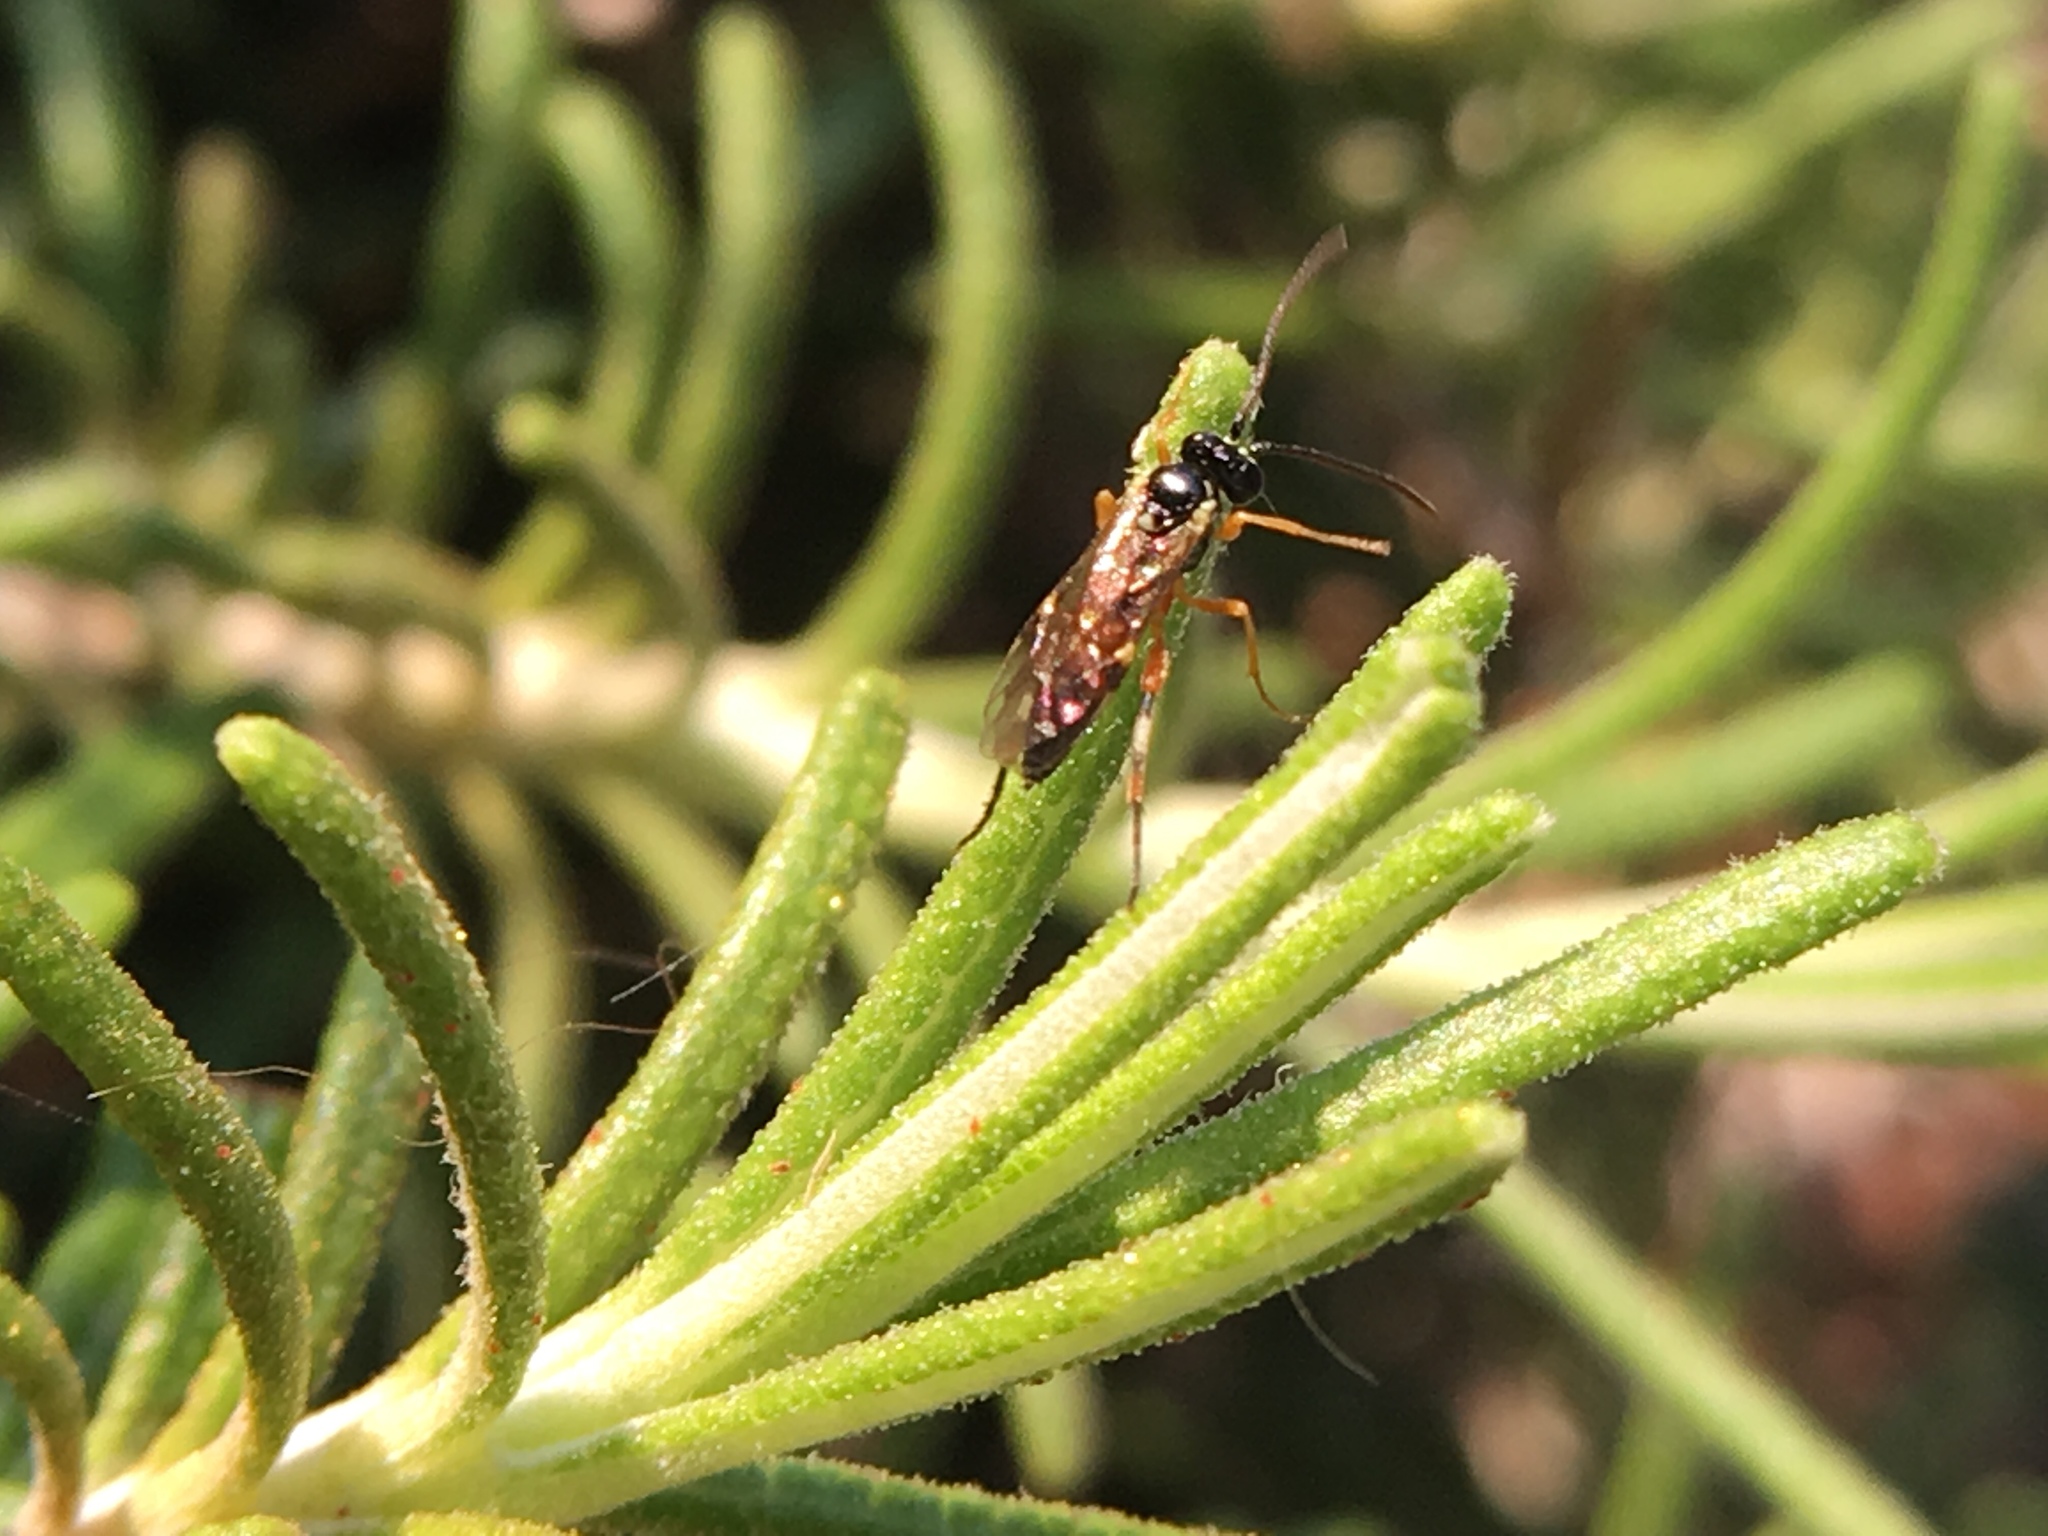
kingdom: Animalia
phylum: Arthropoda
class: Insecta
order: Hymenoptera
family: Ichneumonidae
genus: Diplazon
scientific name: Diplazon laetatorius
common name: Parasitoid wasp
